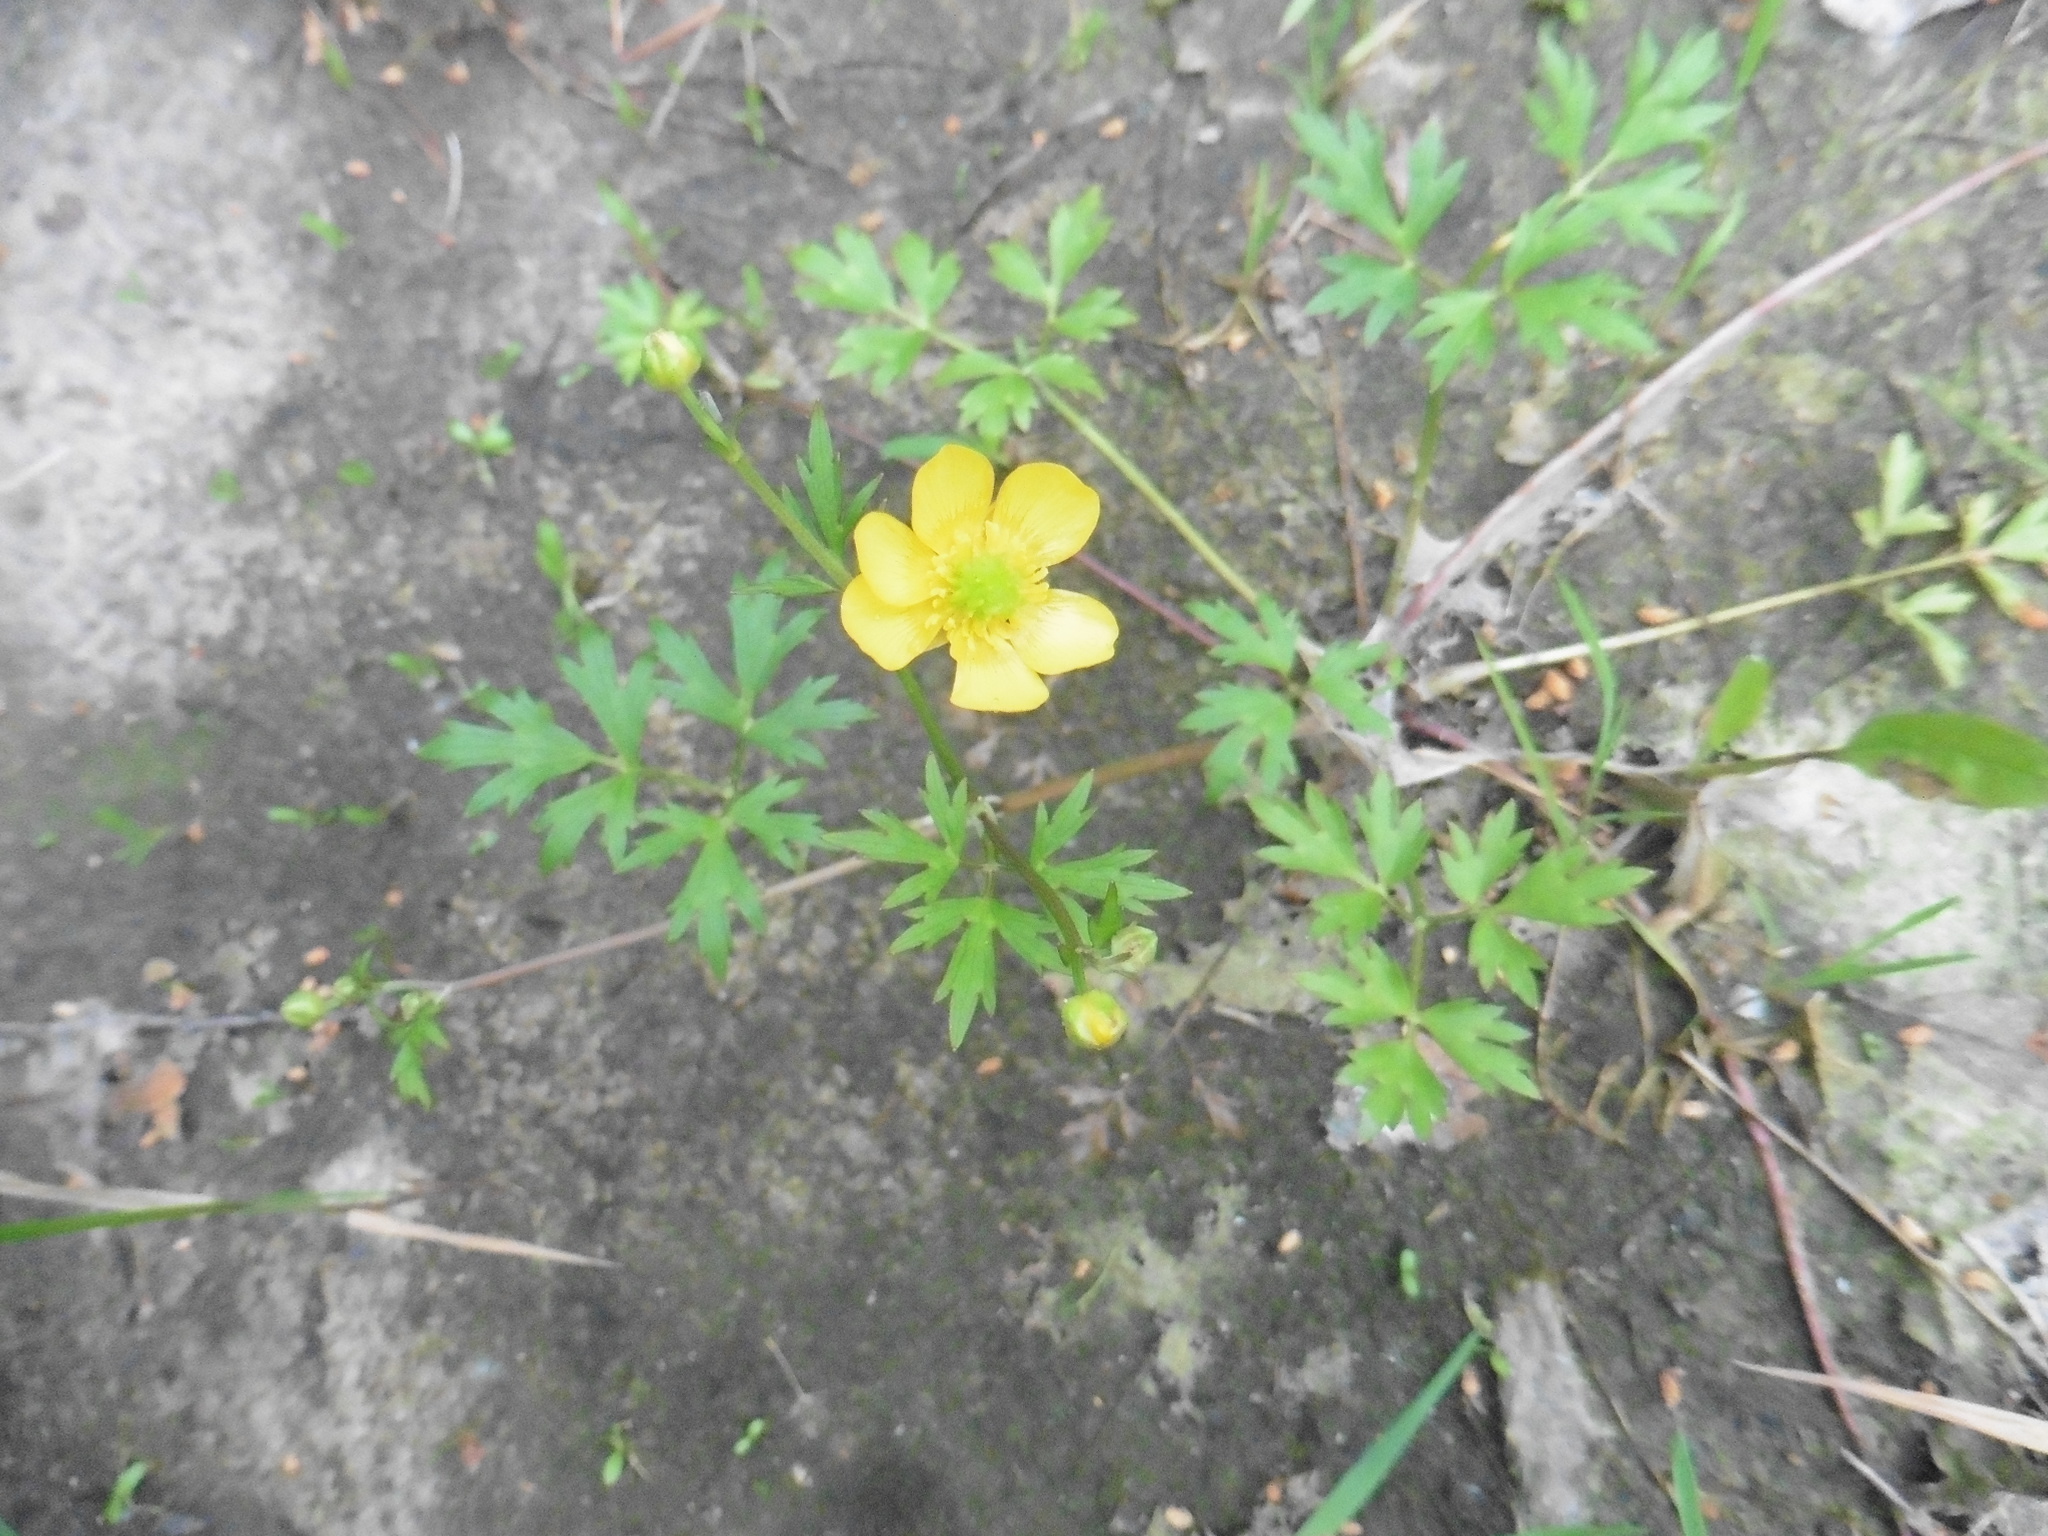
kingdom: Plantae
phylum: Tracheophyta
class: Magnoliopsida
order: Ranunculales
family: Ranunculaceae
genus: Ranunculus
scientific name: Ranunculus repens
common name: Creeping buttercup
